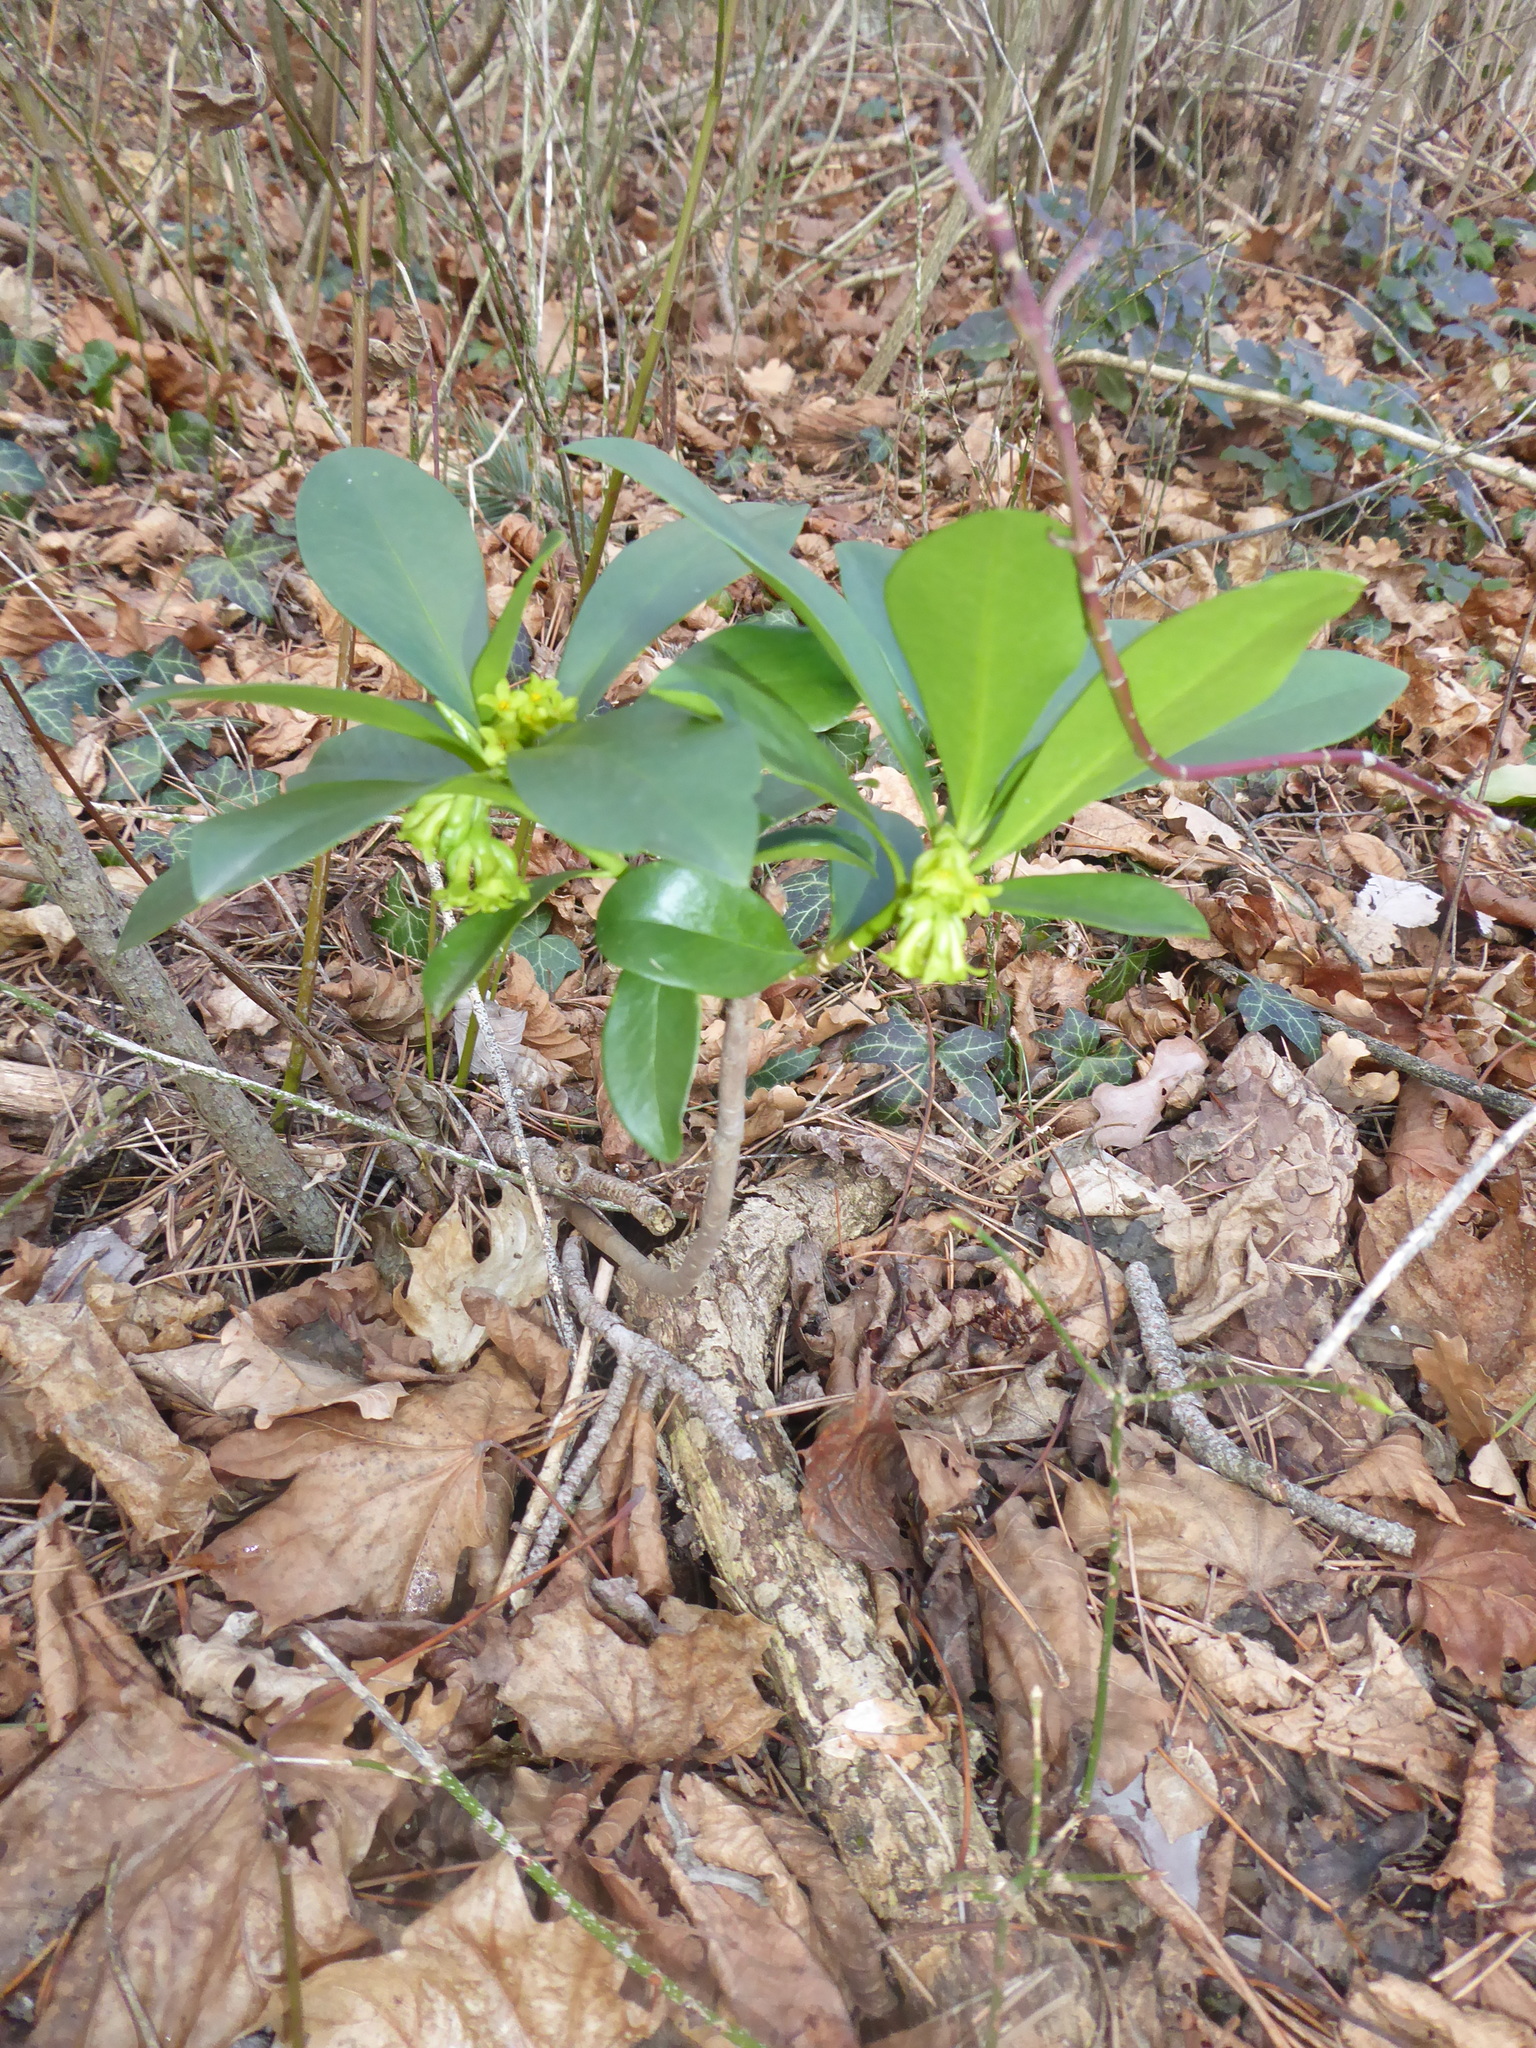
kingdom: Plantae
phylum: Tracheophyta
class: Magnoliopsida
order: Malvales
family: Thymelaeaceae
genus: Daphne
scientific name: Daphne laureola
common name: Spurge-laurel
